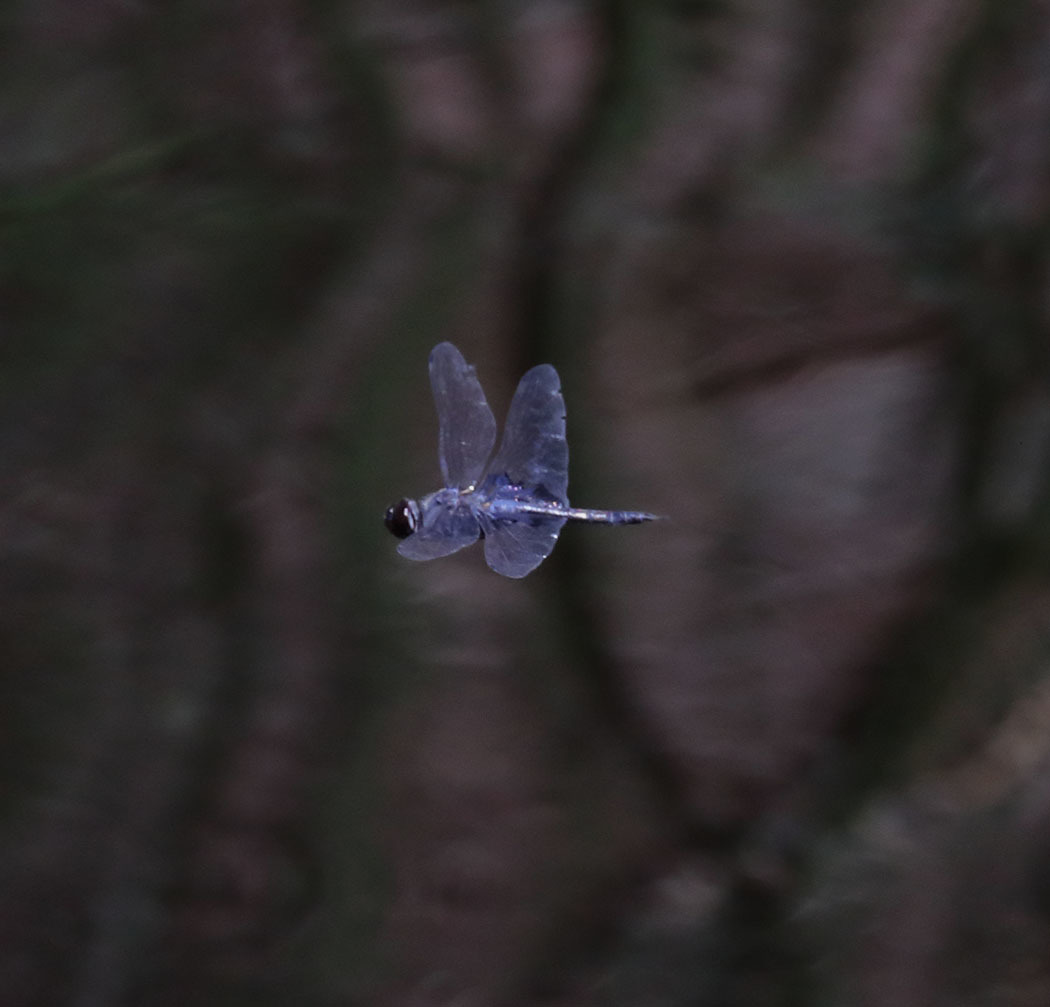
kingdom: Animalia
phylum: Arthropoda
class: Insecta
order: Odonata
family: Libellulidae
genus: Tramea
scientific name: Tramea lacerata
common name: Black saddlebags
